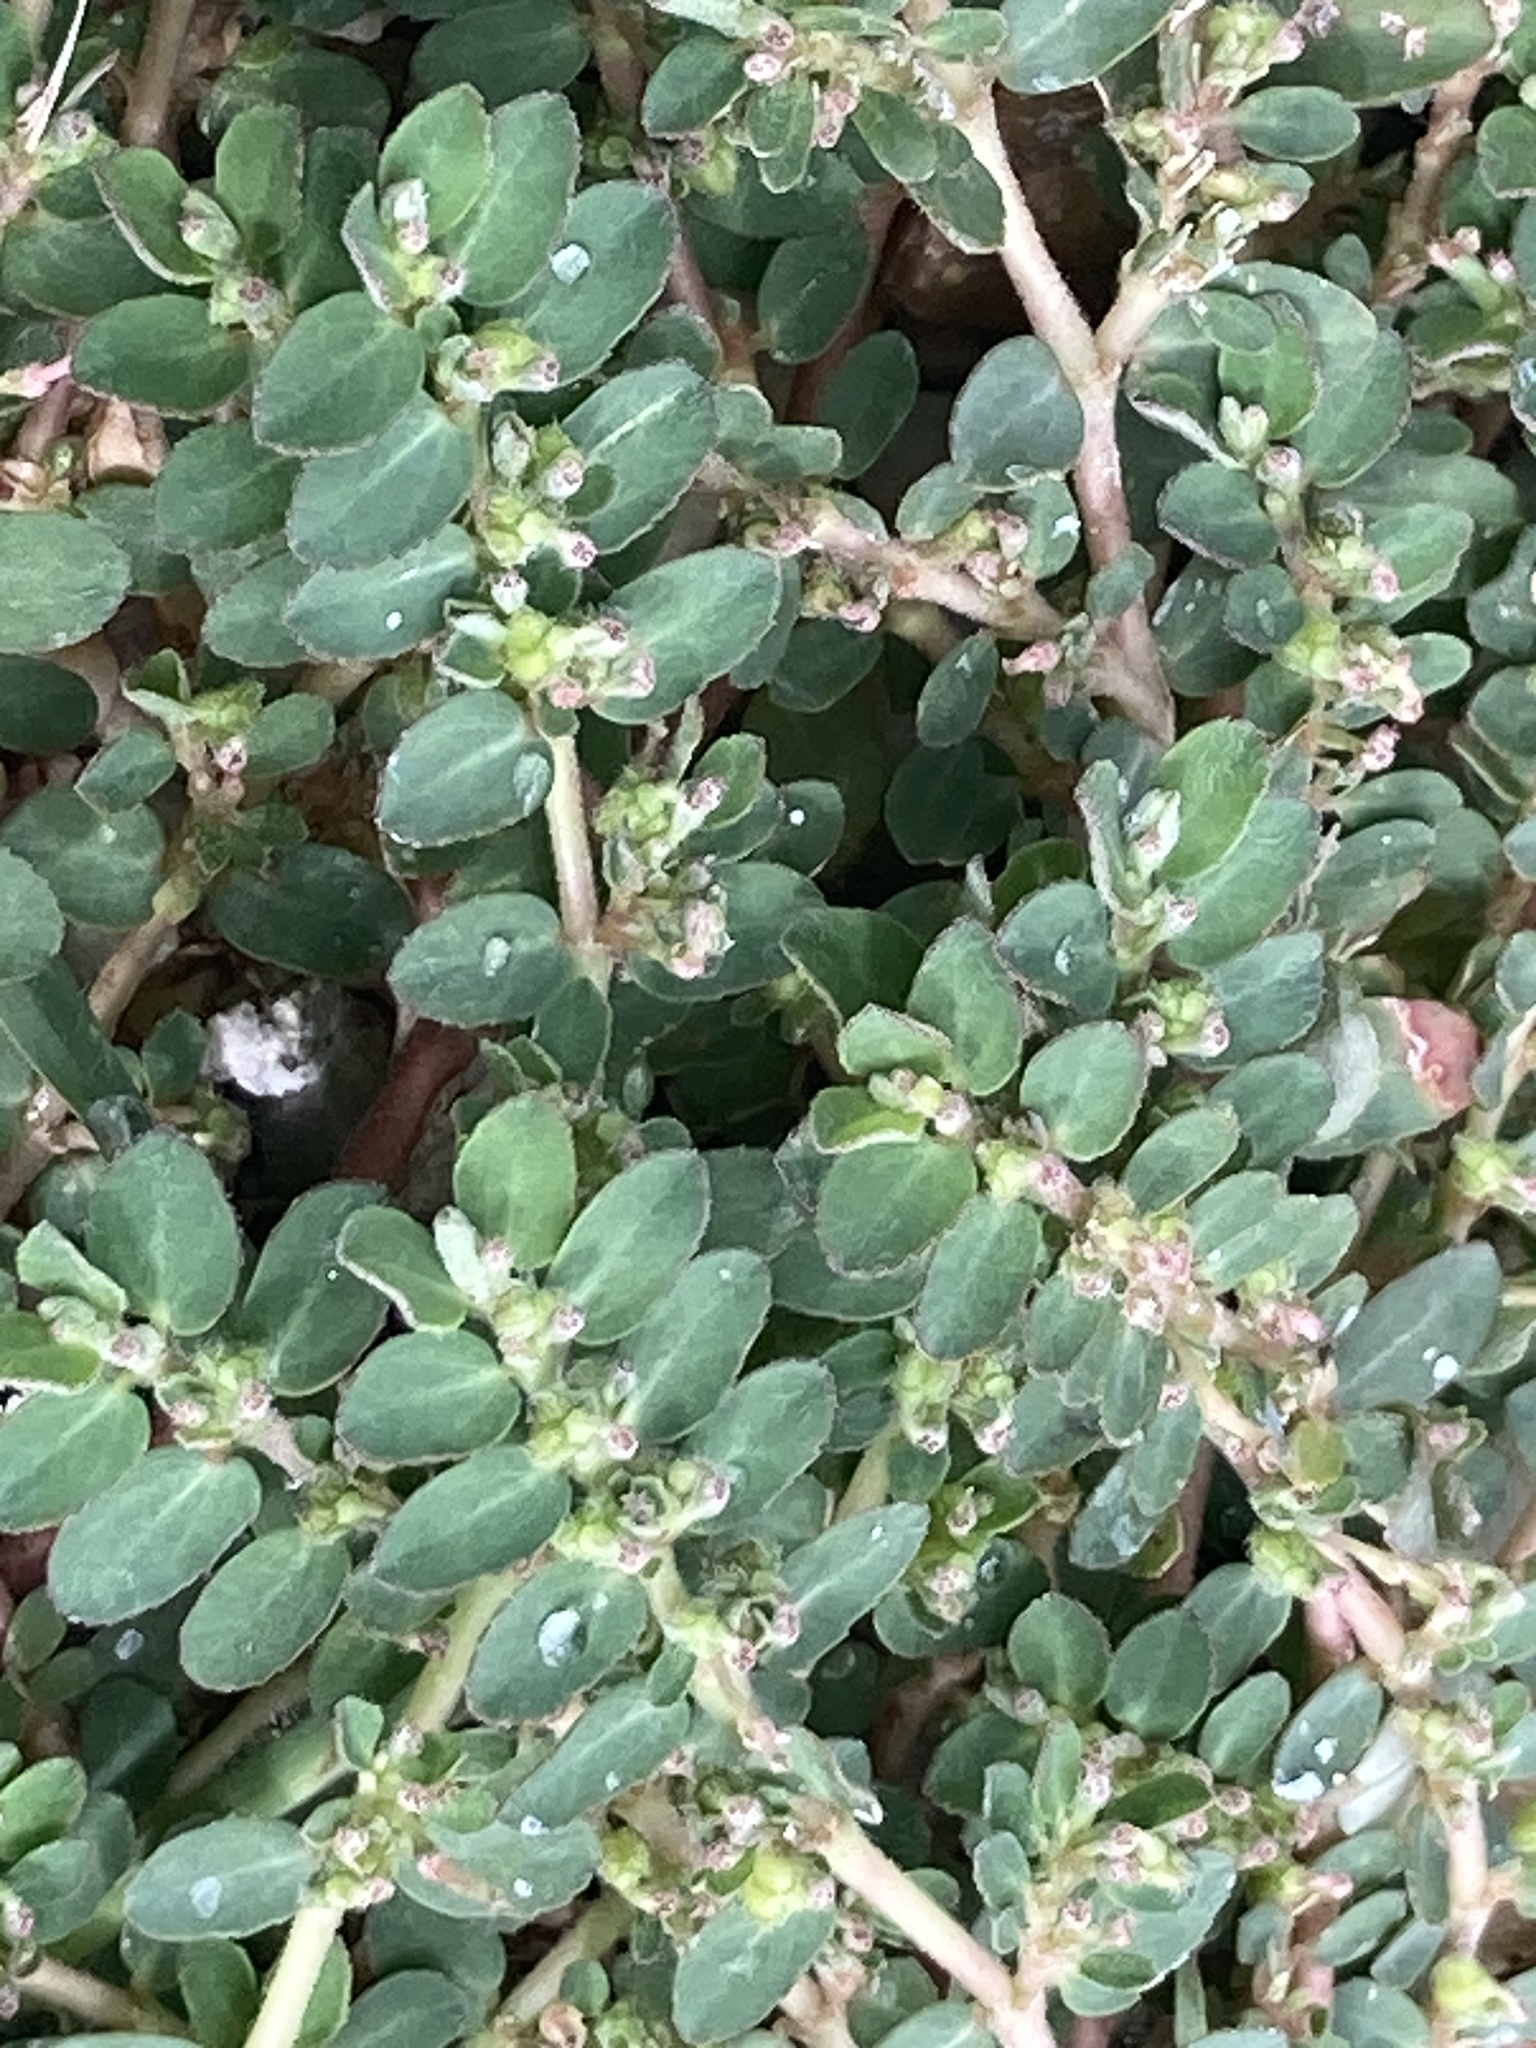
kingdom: Plantae
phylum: Tracheophyta
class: Magnoliopsida
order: Malpighiales
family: Euphorbiaceae
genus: Euphorbia
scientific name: Euphorbia prostrata
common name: Prostrate sandmat
